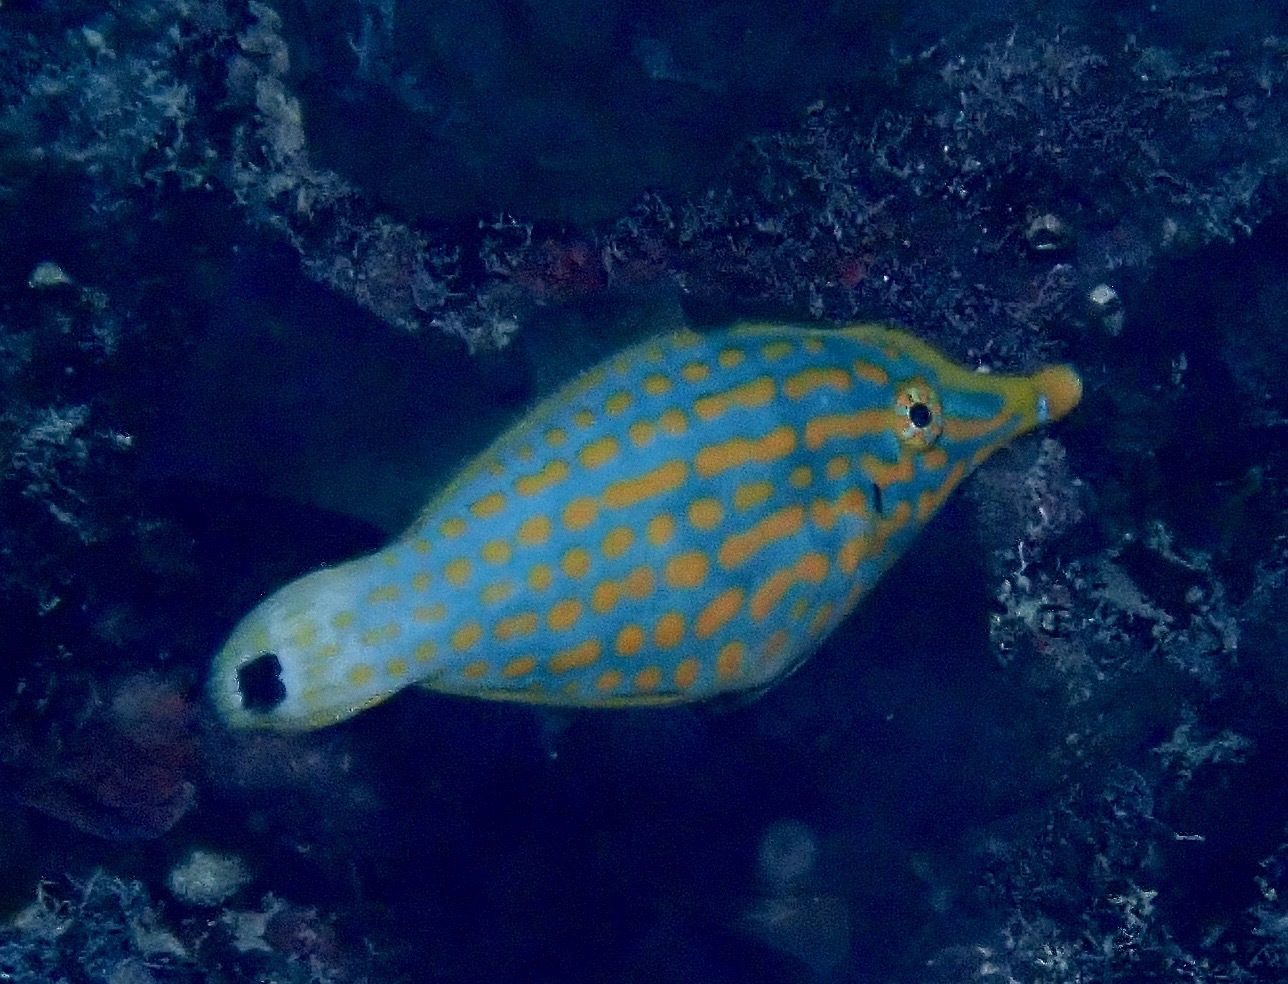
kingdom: Animalia
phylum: Chordata
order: Tetraodontiformes
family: Monacanthidae
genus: Oxymonacanthus
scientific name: Oxymonacanthus longirostris
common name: Beaked leatherjacket
